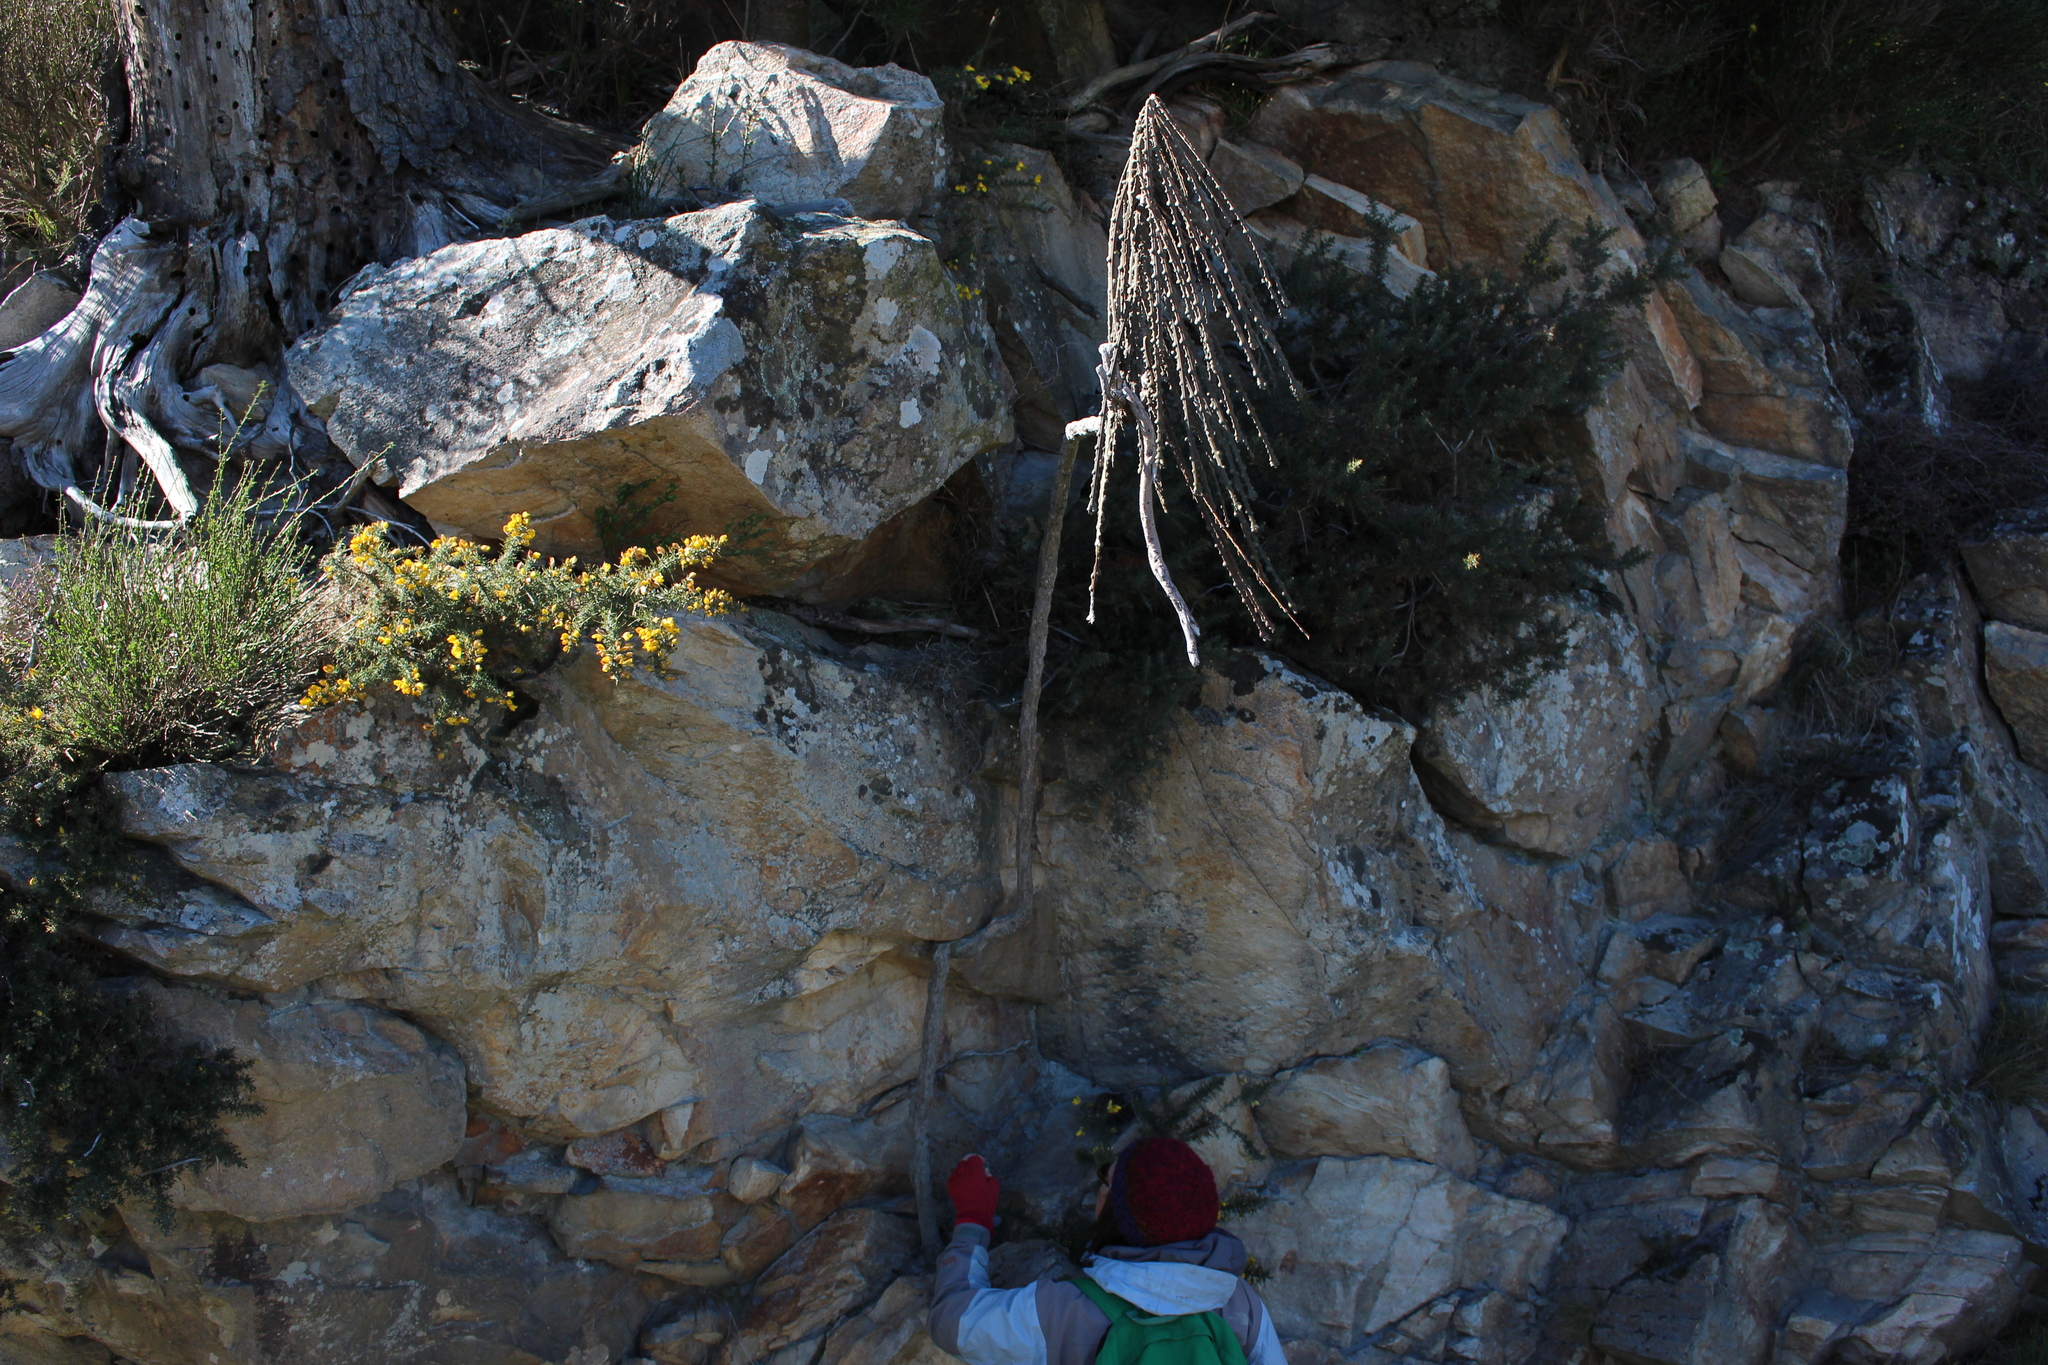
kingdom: Plantae
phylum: Tracheophyta
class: Magnoliopsida
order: Apiales
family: Araliaceae
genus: Pseudopanax
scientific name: Pseudopanax ferox
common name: Fierce lancewood
